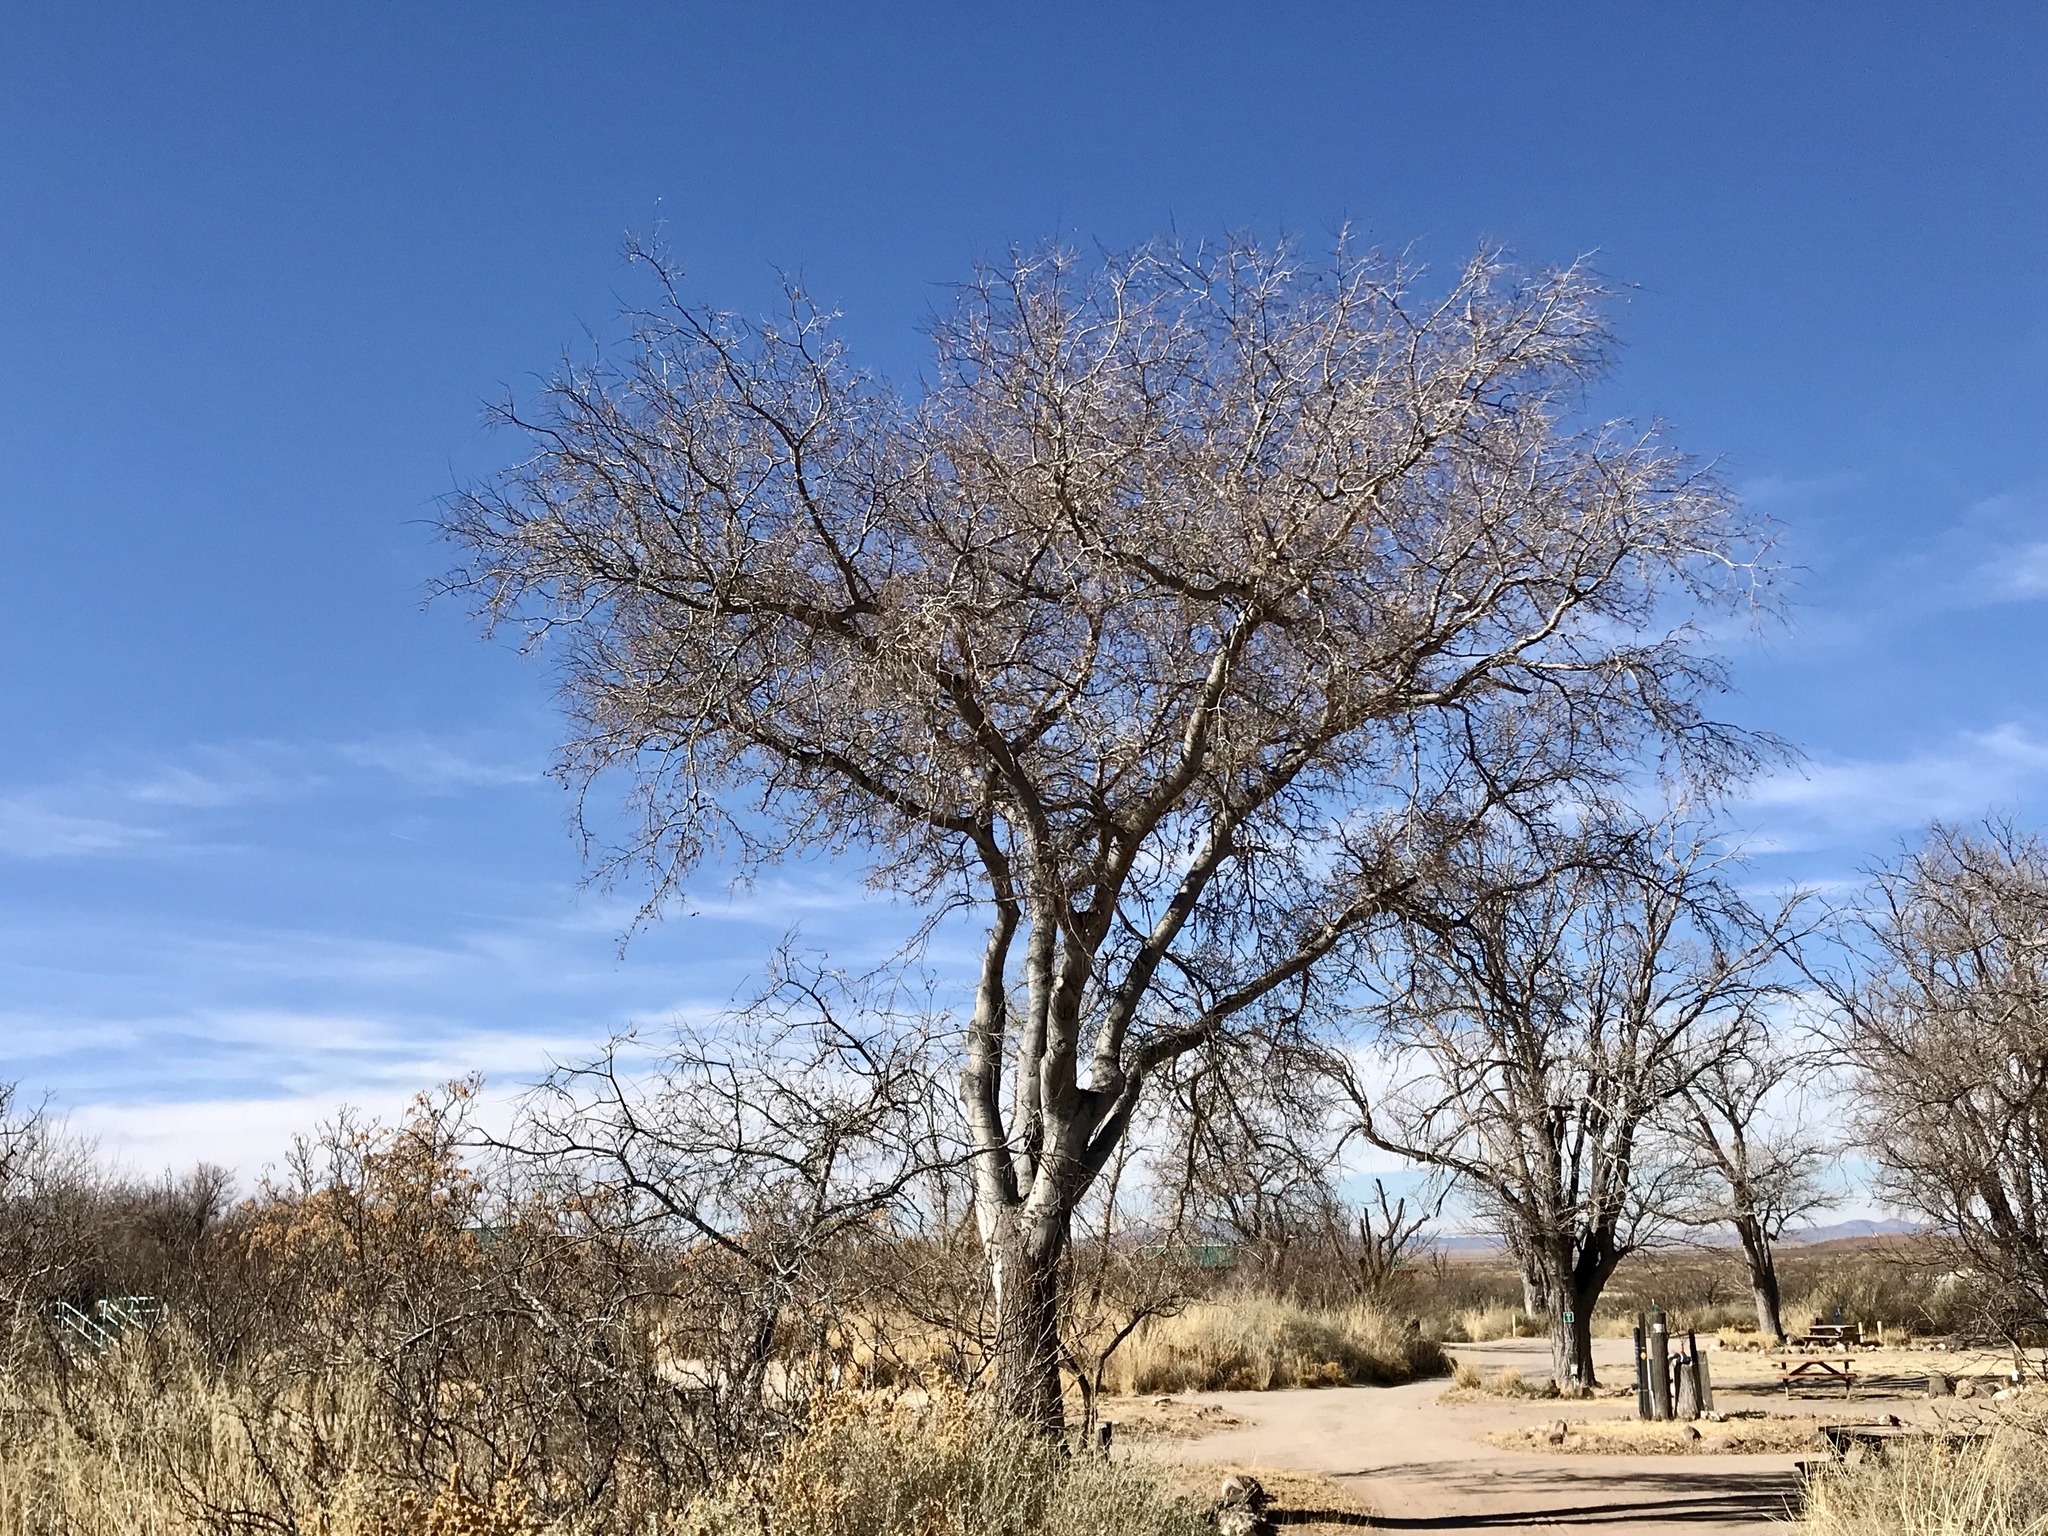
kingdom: Plantae
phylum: Tracheophyta
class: Magnoliopsida
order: Rosales
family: Cannabaceae
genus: Celtis
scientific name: Celtis reticulata
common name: Netleaf hackberry
